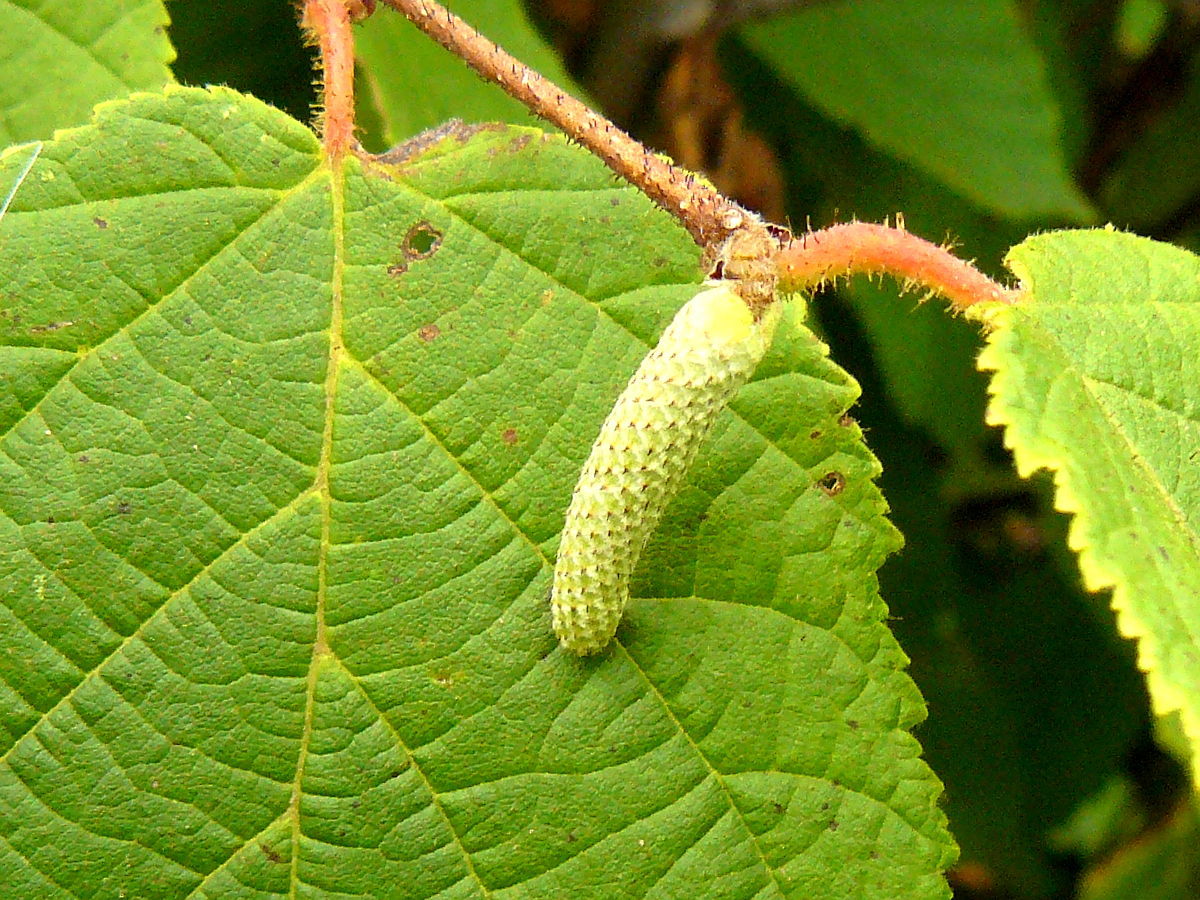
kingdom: Plantae
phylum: Tracheophyta
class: Magnoliopsida
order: Fagales
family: Betulaceae
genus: Corylus
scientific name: Corylus americana
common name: American hazel
